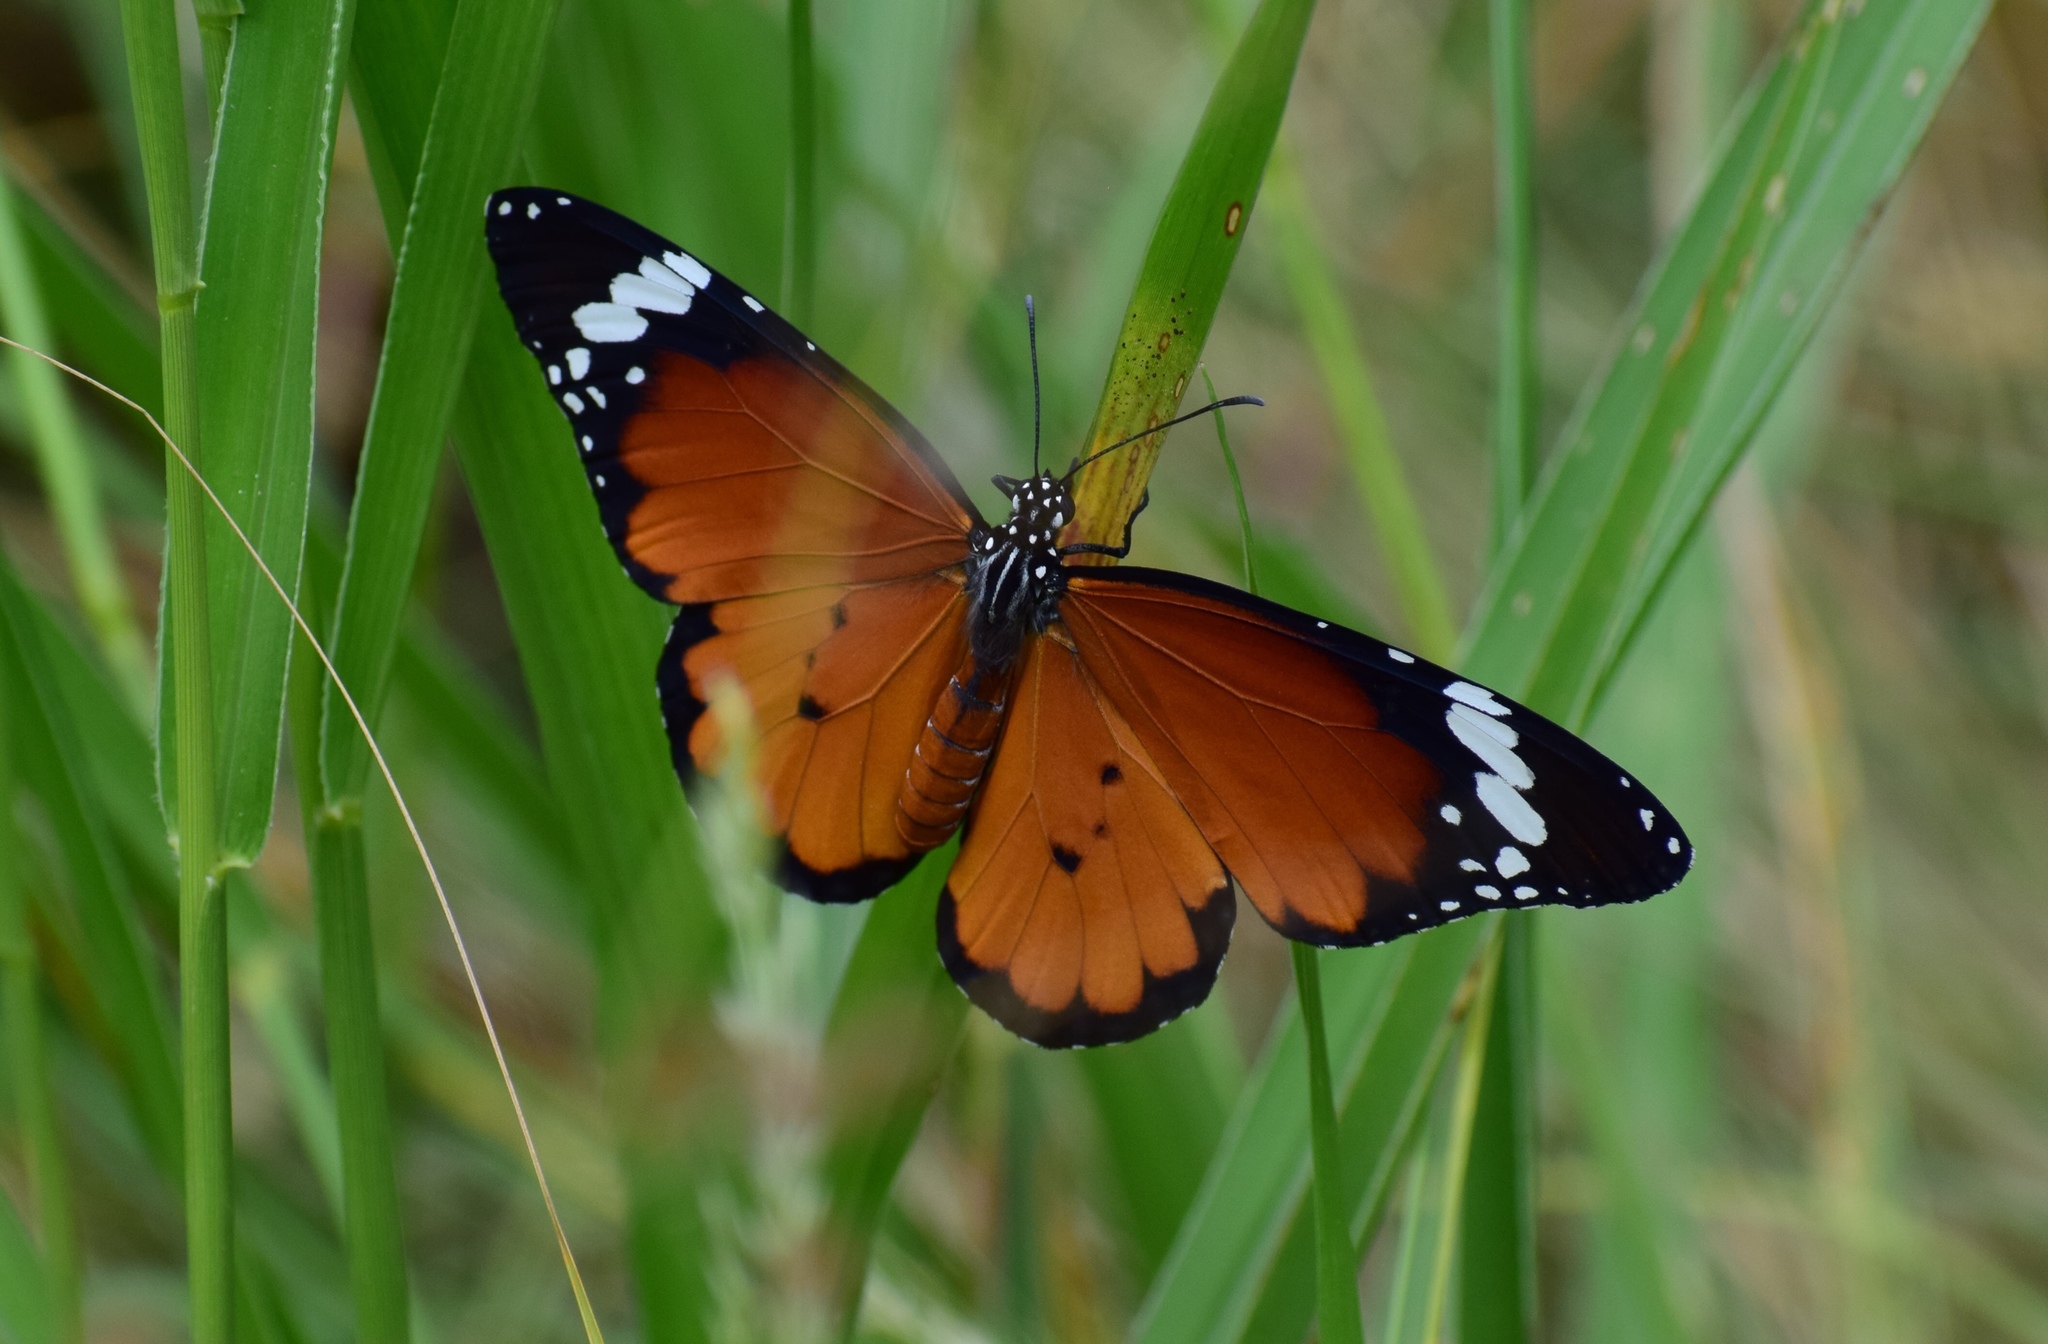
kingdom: Animalia
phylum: Arthropoda
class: Insecta
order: Lepidoptera
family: Nymphalidae
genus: Danaus
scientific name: Danaus chrysippus
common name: Plain tiger
